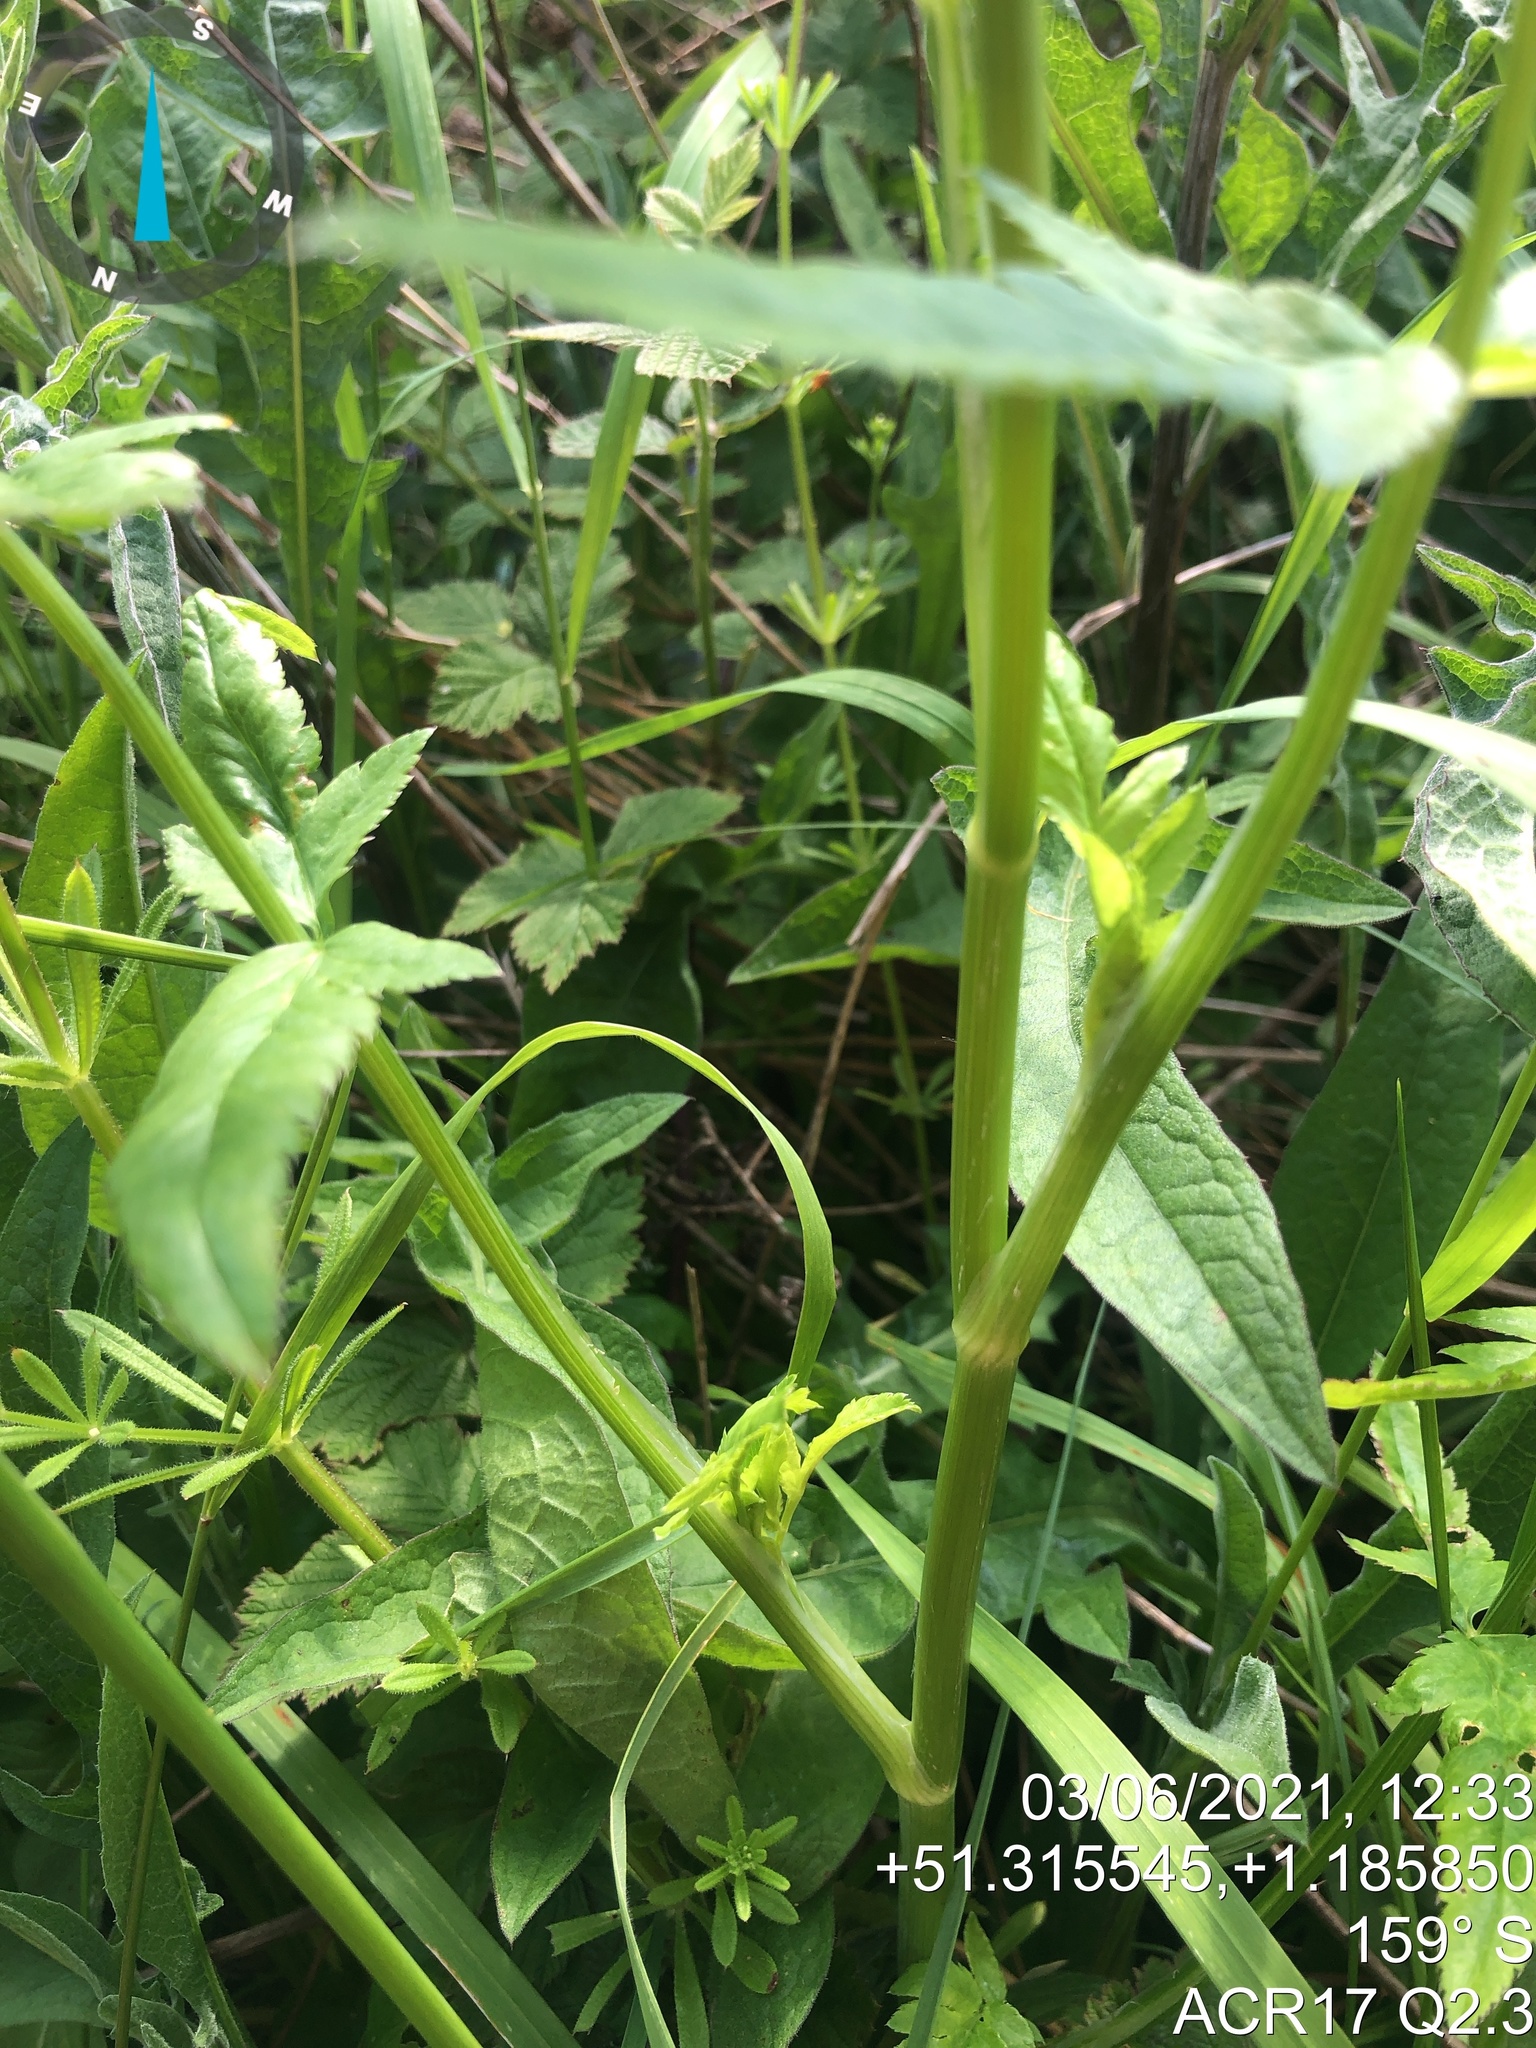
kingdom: Plantae
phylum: Tracheophyta
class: Magnoliopsida
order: Apiales
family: Apiaceae
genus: Pastinaca
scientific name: Pastinaca sativa
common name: Wild parsnip
